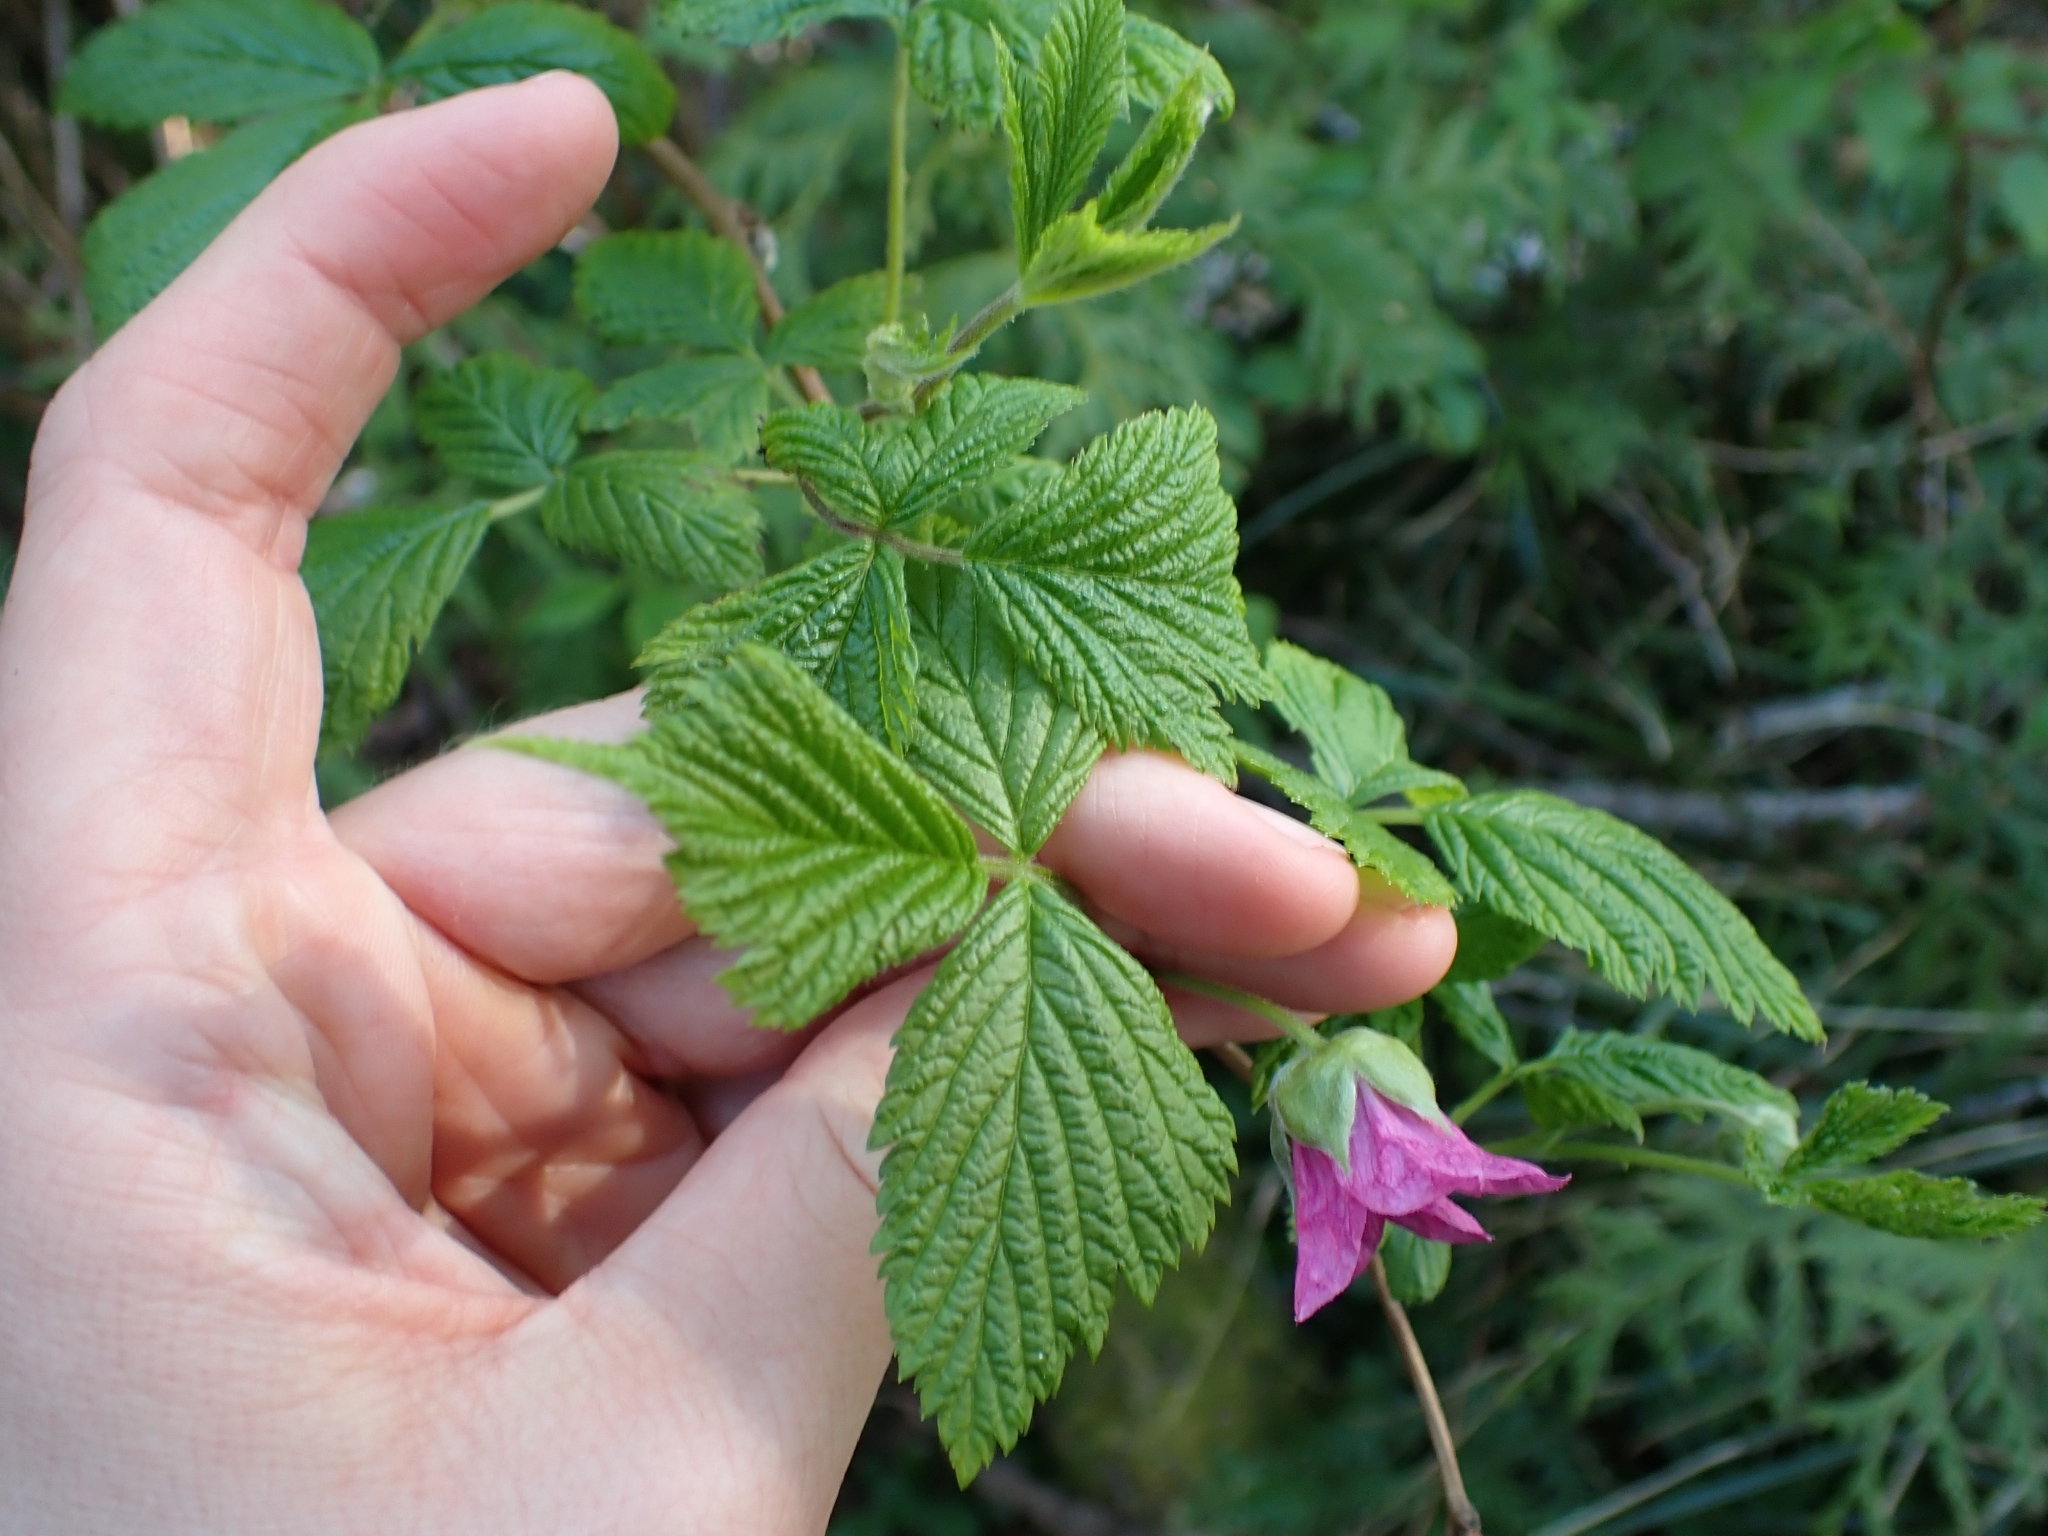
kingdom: Plantae
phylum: Tracheophyta
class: Magnoliopsida
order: Rosales
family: Rosaceae
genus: Rubus
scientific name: Rubus spectabilis
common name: Salmonberry
